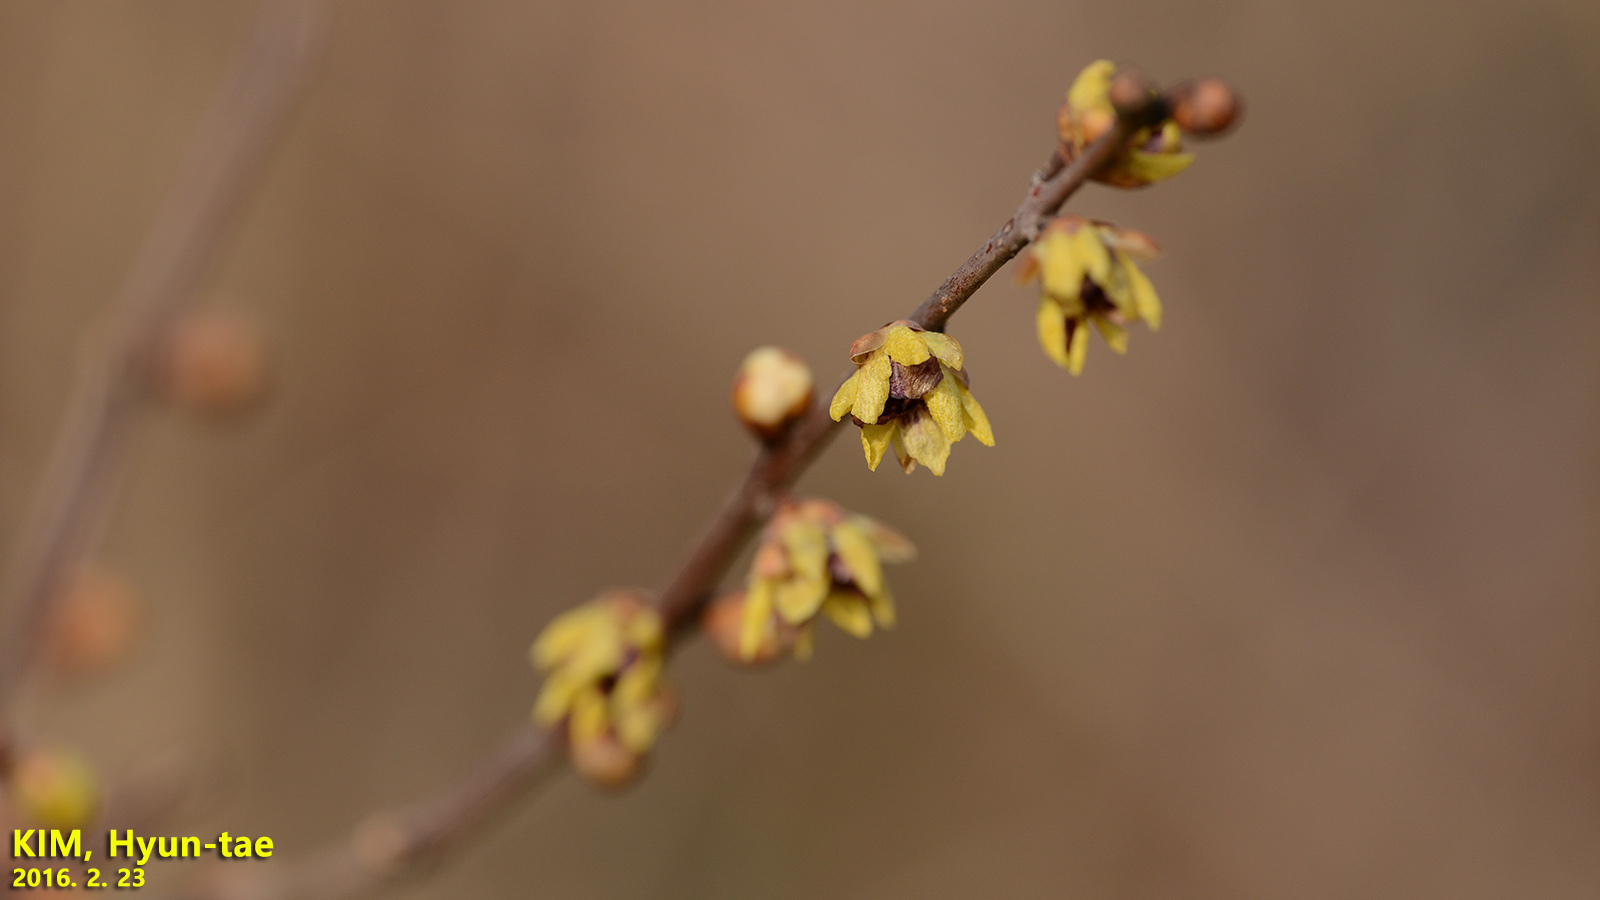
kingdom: Plantae
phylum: Tracheophyta
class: Magnoliopsida
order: Laurales
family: Calycanthaceae
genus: Chimonanthus
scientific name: Chimonanthus praecox
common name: Wintersweet
